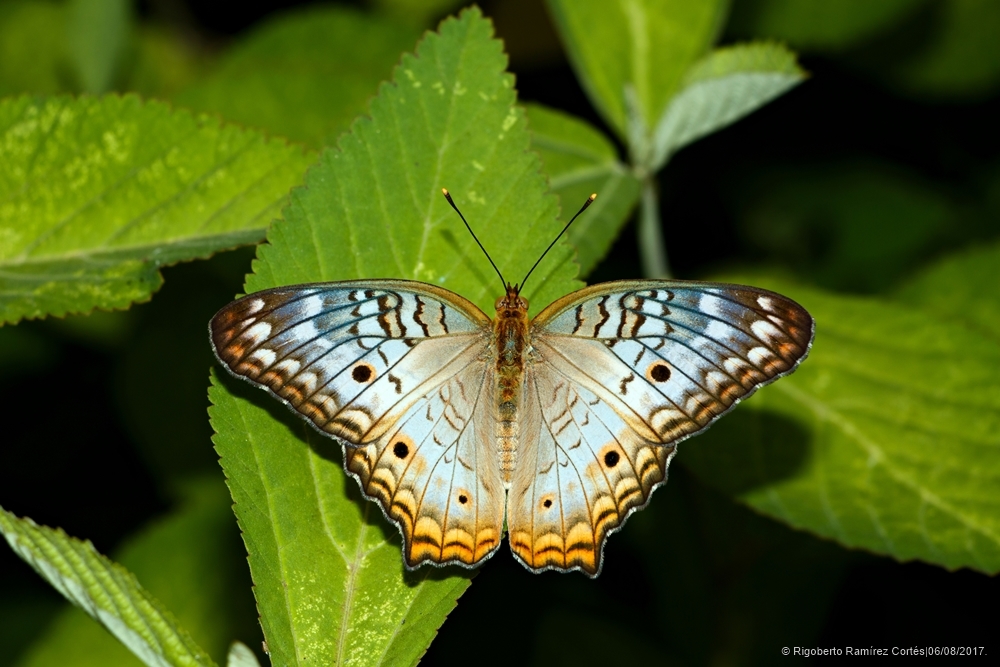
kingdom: Animalia
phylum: Arthropoda
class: Insecta
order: Lepidoptera
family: Nymphalidae
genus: Anartia
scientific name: Anartia jatrophae
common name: White peacock
